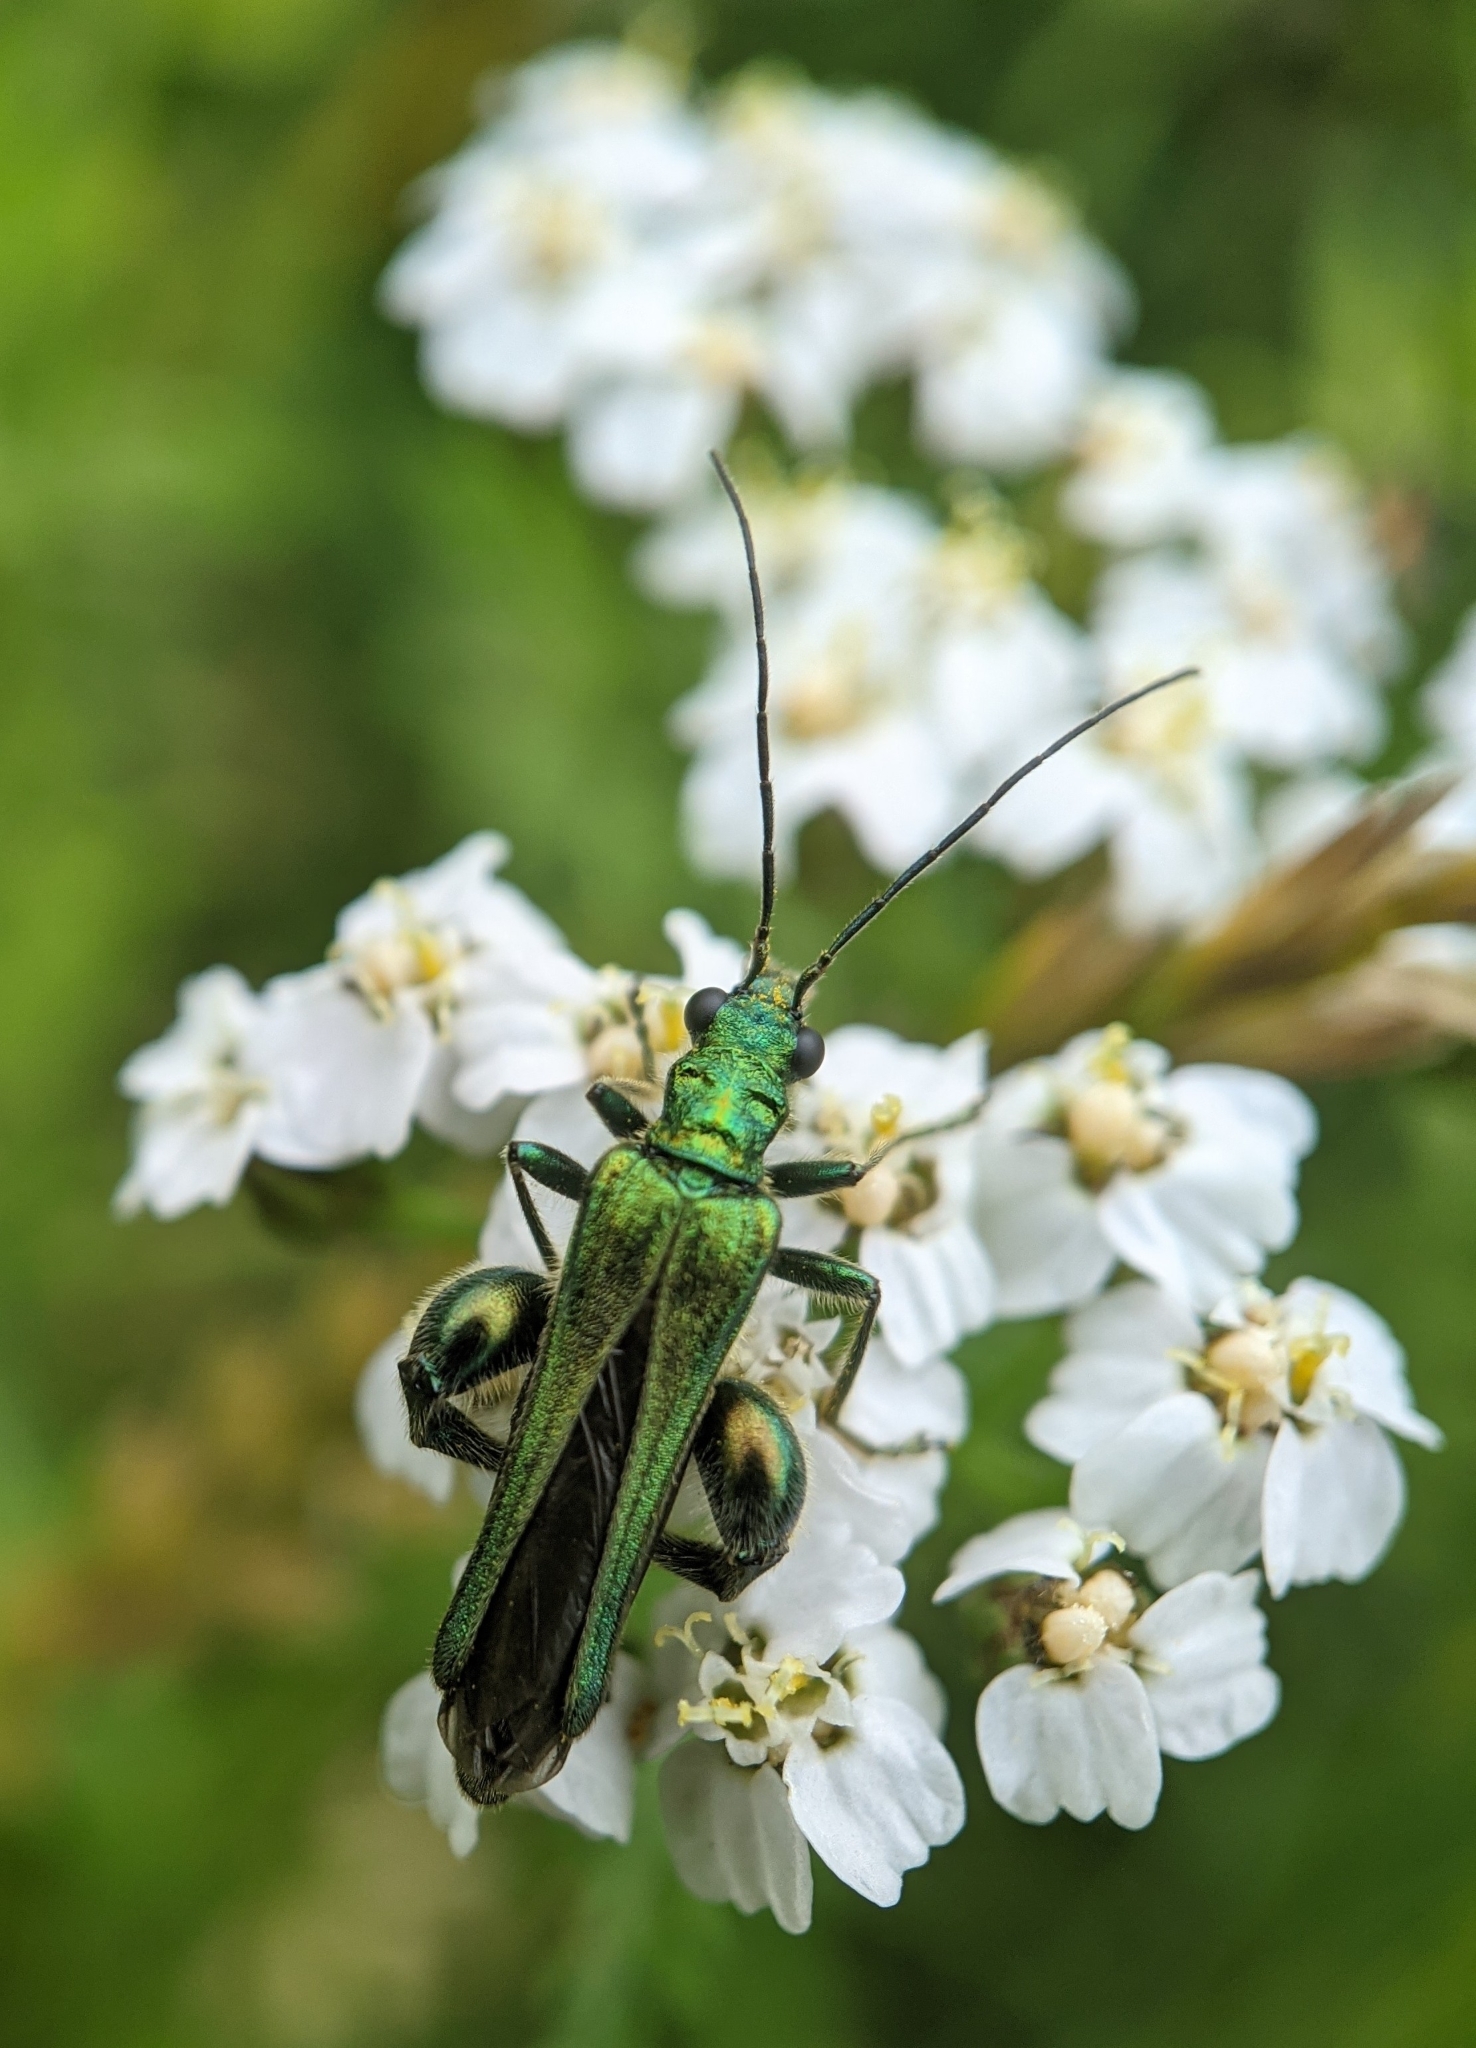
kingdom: Animalia
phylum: Arthropoda
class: Insecta
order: Coleoptera
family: Oedemeridae
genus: Oedemera
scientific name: Oedemera nobilis
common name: Swollen-thighed beetle
